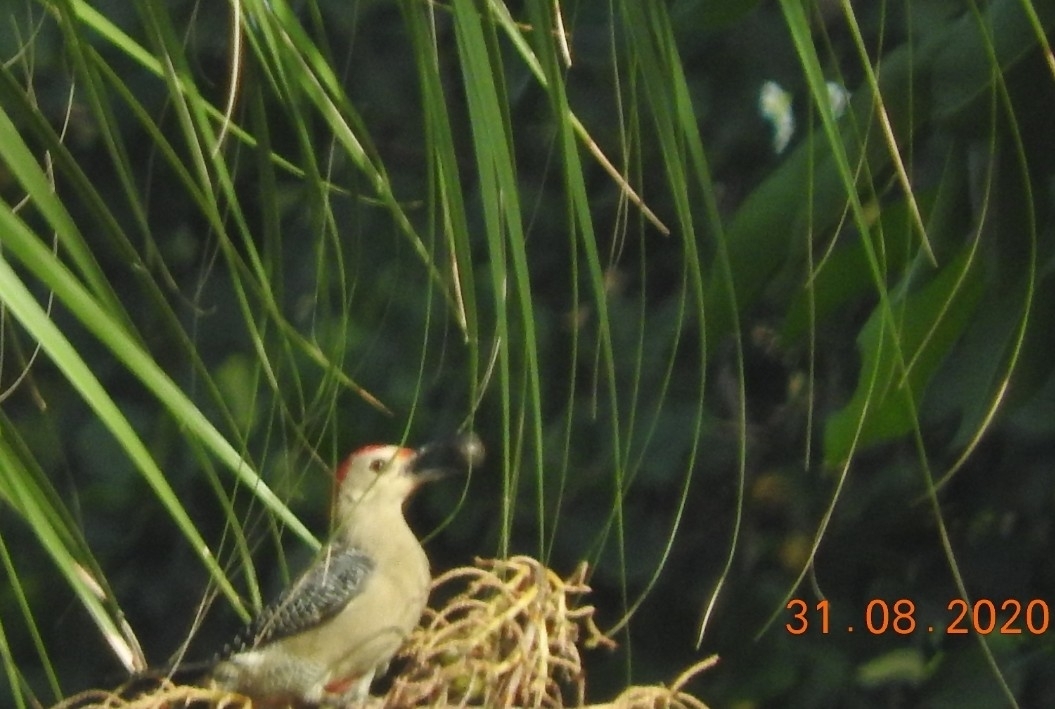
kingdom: Animalia
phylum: Chordata
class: Aves
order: Piciformes
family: Picidae
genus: Melanerpes
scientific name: Melanerpes aurifrons
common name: Golden-fronted woodpecker
